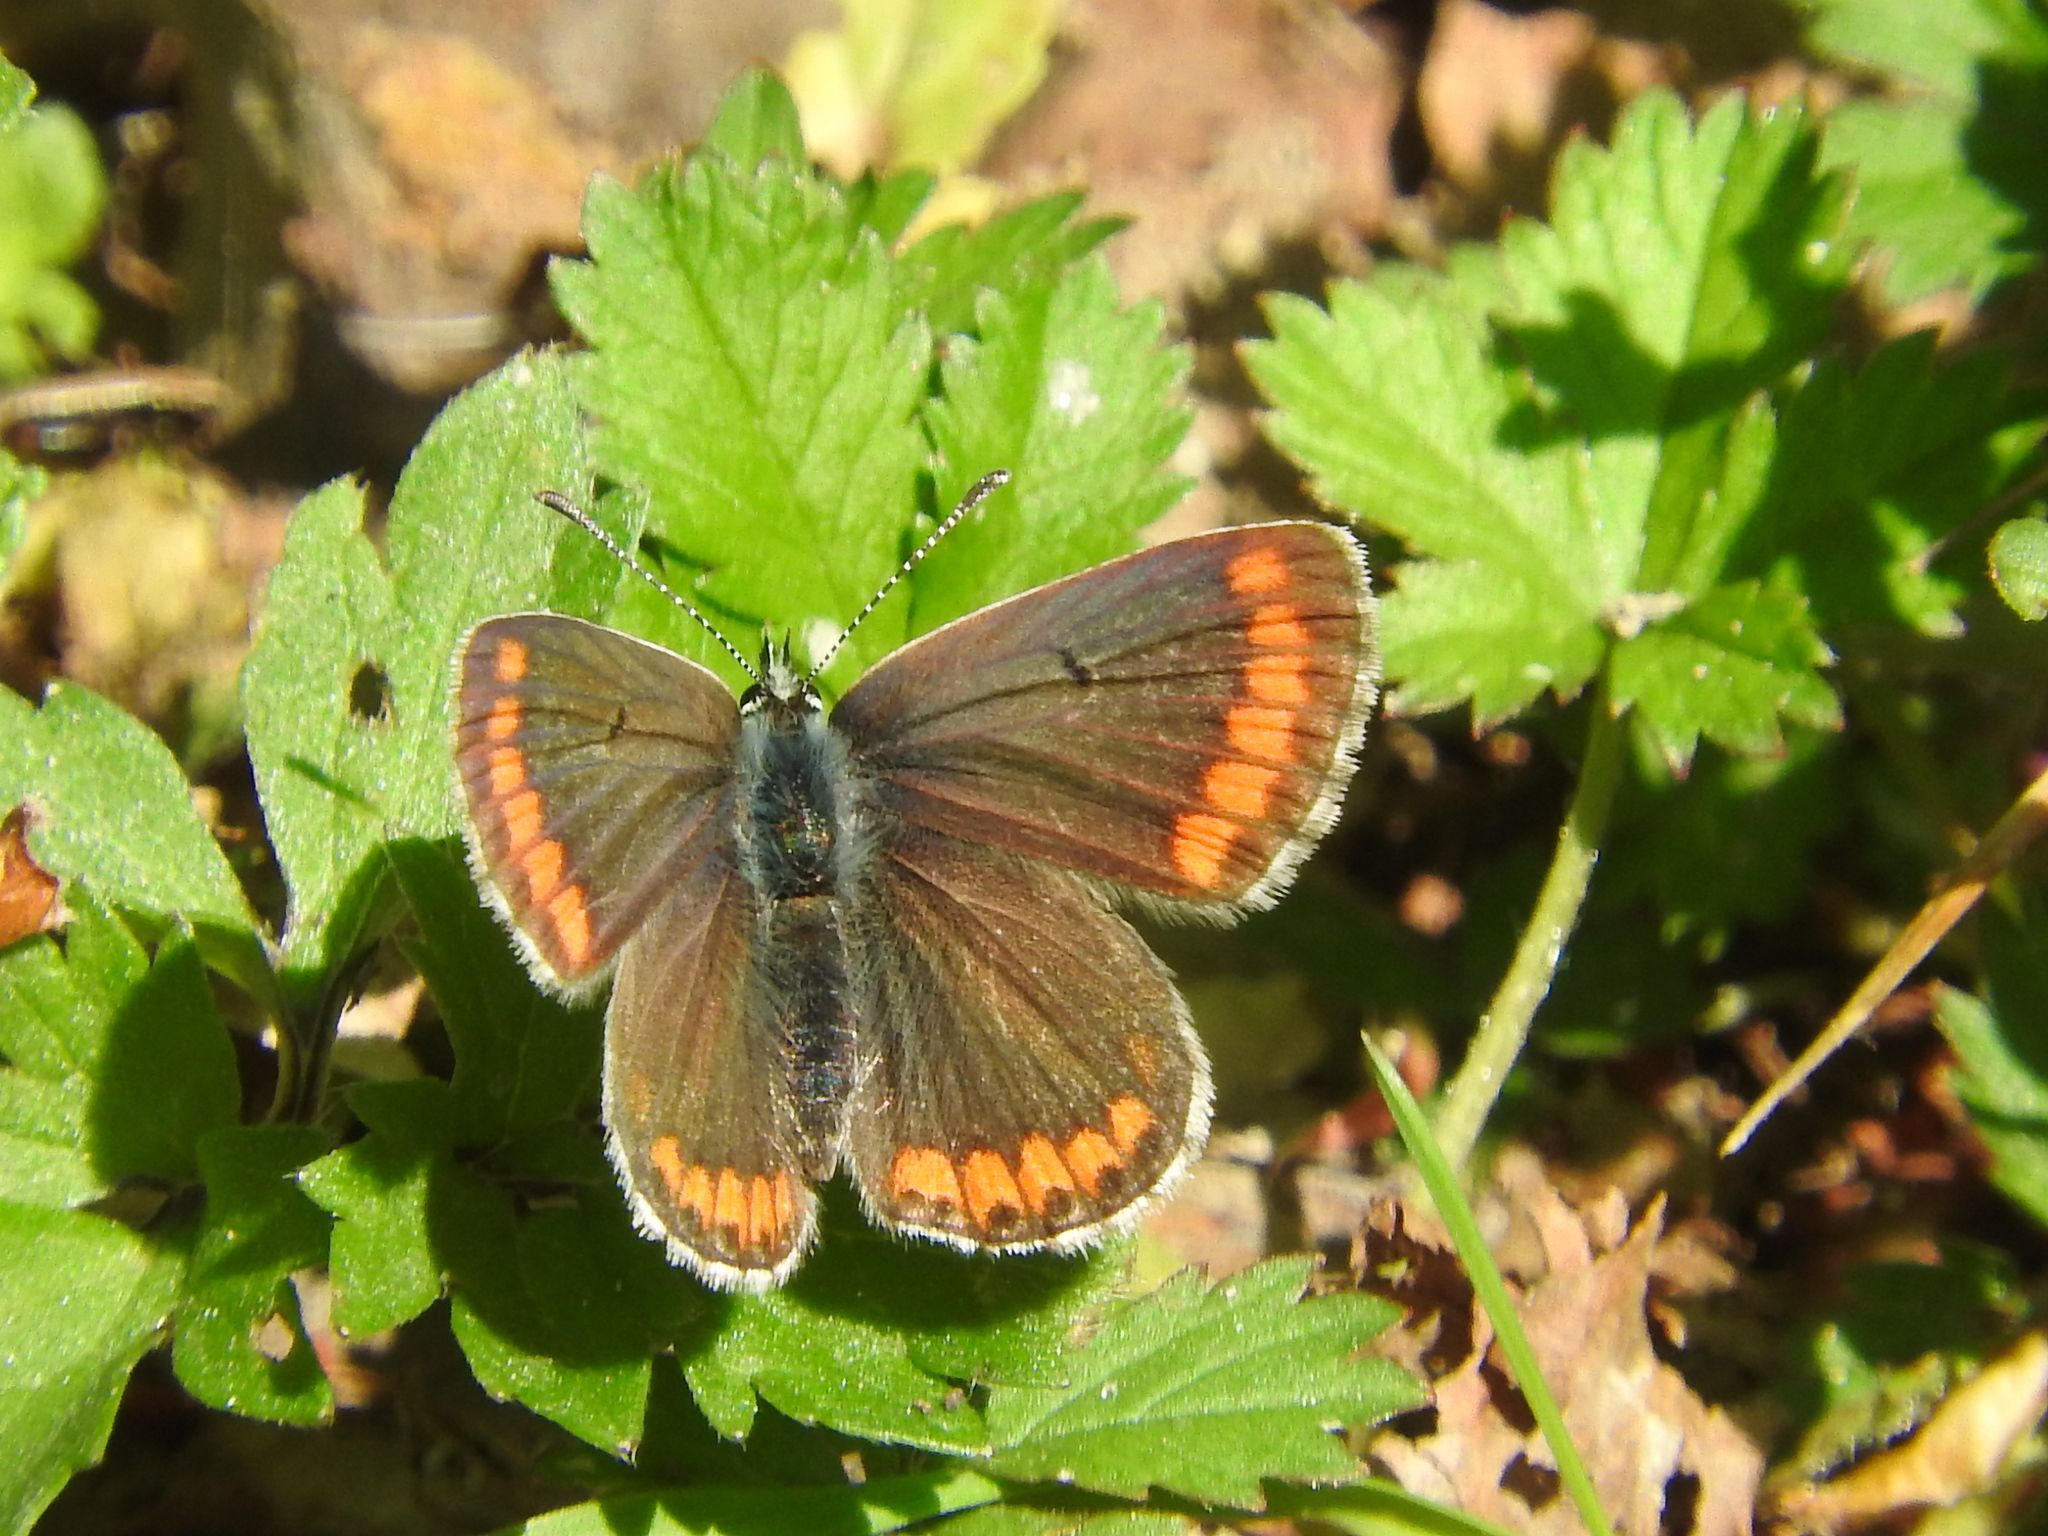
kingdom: Animalia
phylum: Arthropoda
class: Insecta
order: Lepidoptera
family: Lycaenidae
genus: Aricia
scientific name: Aricia agestis
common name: Brown argus
